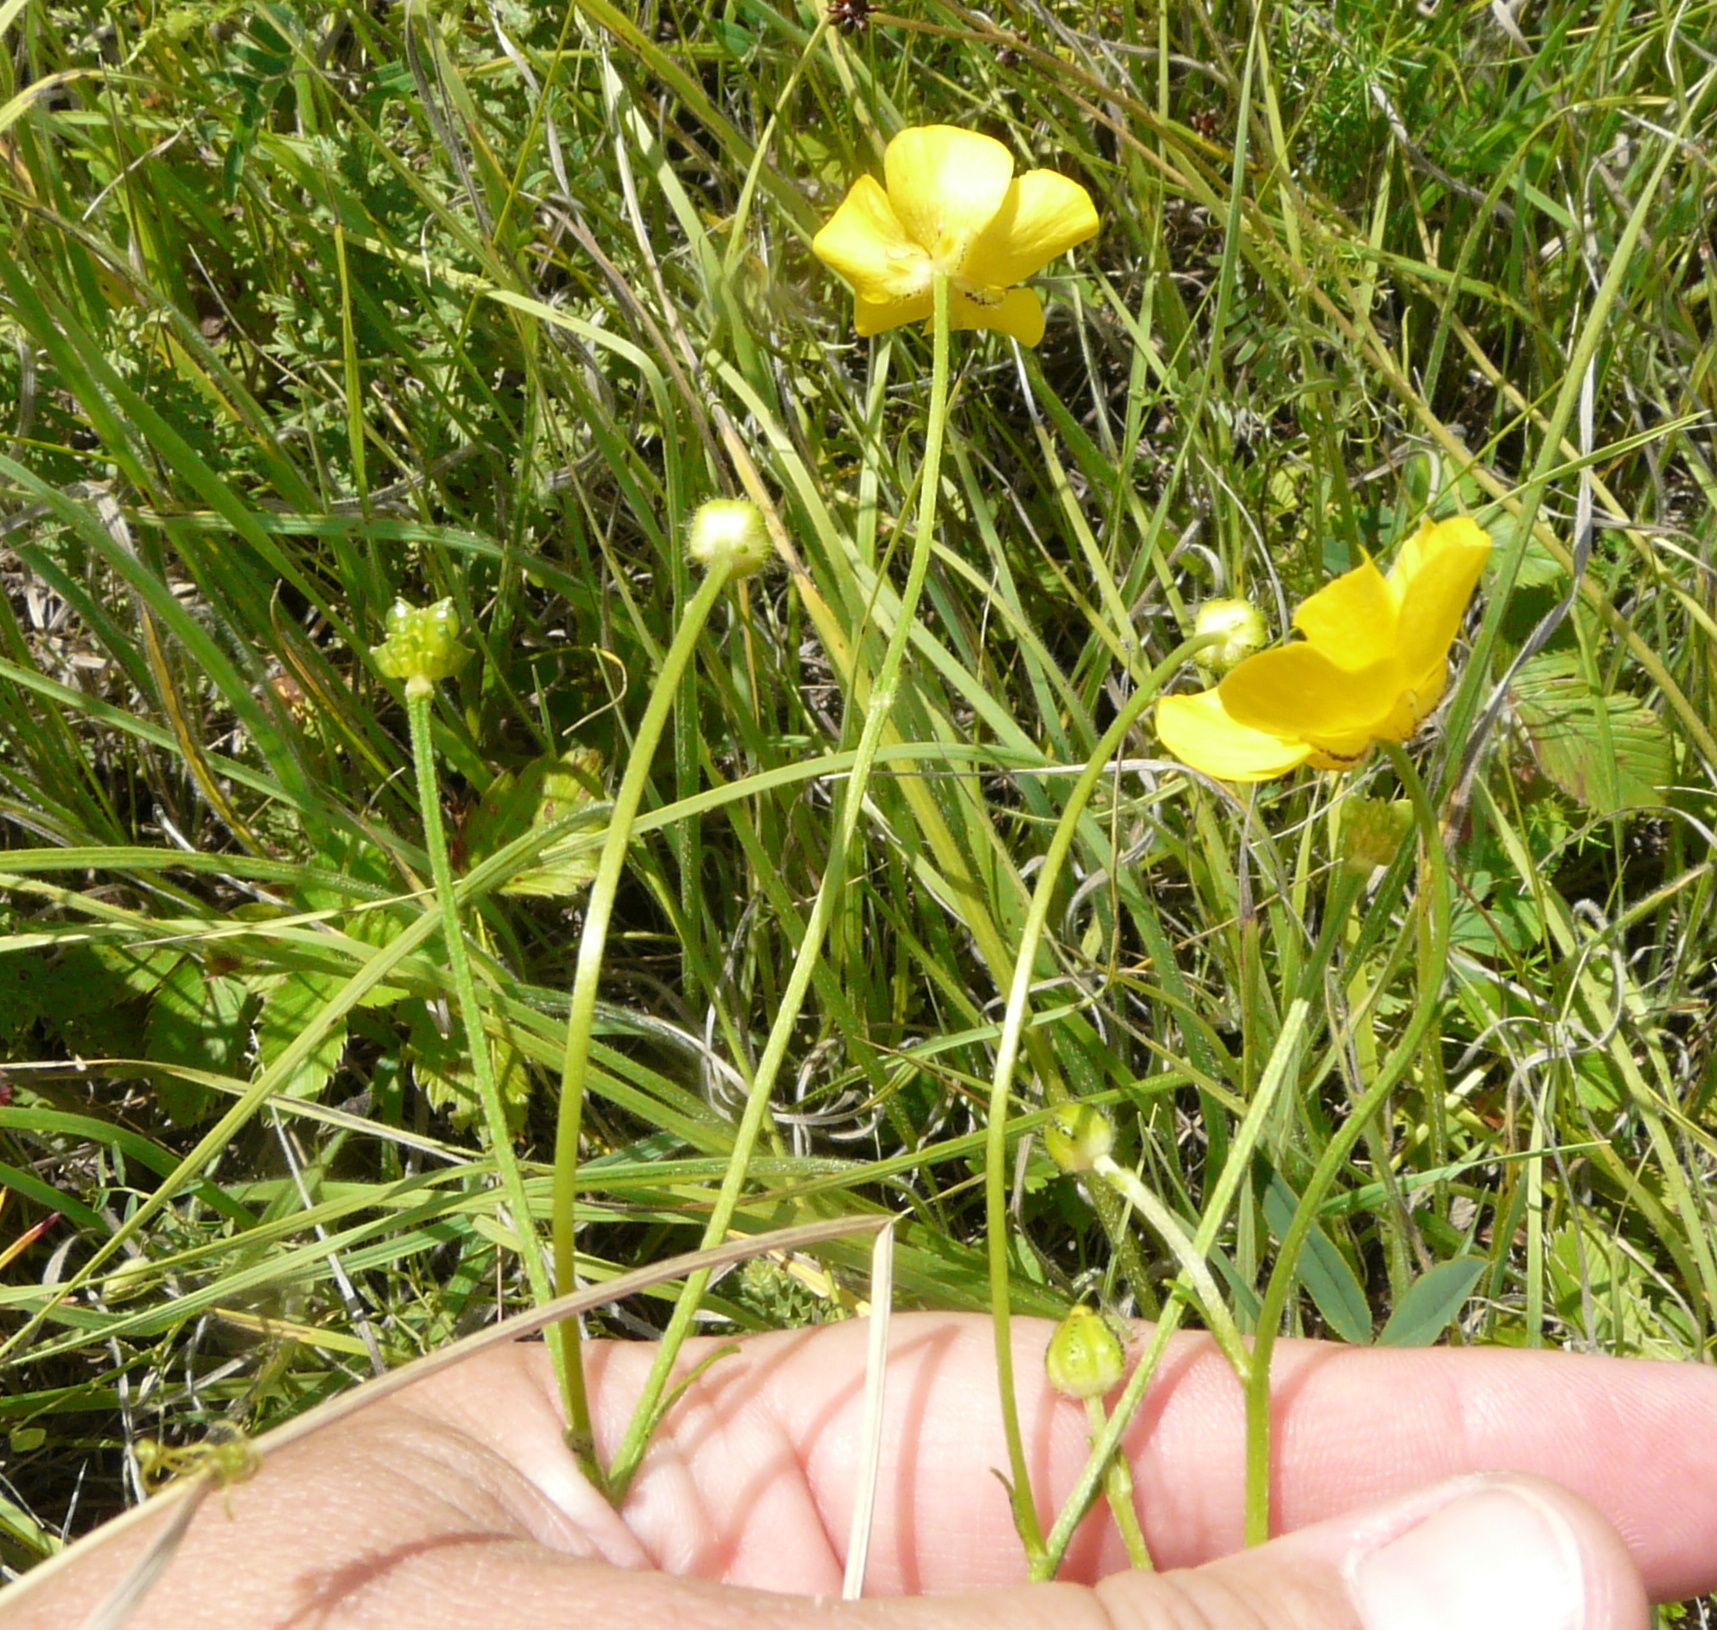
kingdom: Plantae
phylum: Tracheophyta
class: Magnoliopsida
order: Ranunculales
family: Ranunculaceae
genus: Ranunculus
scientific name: Ranunculus polyanthemos
